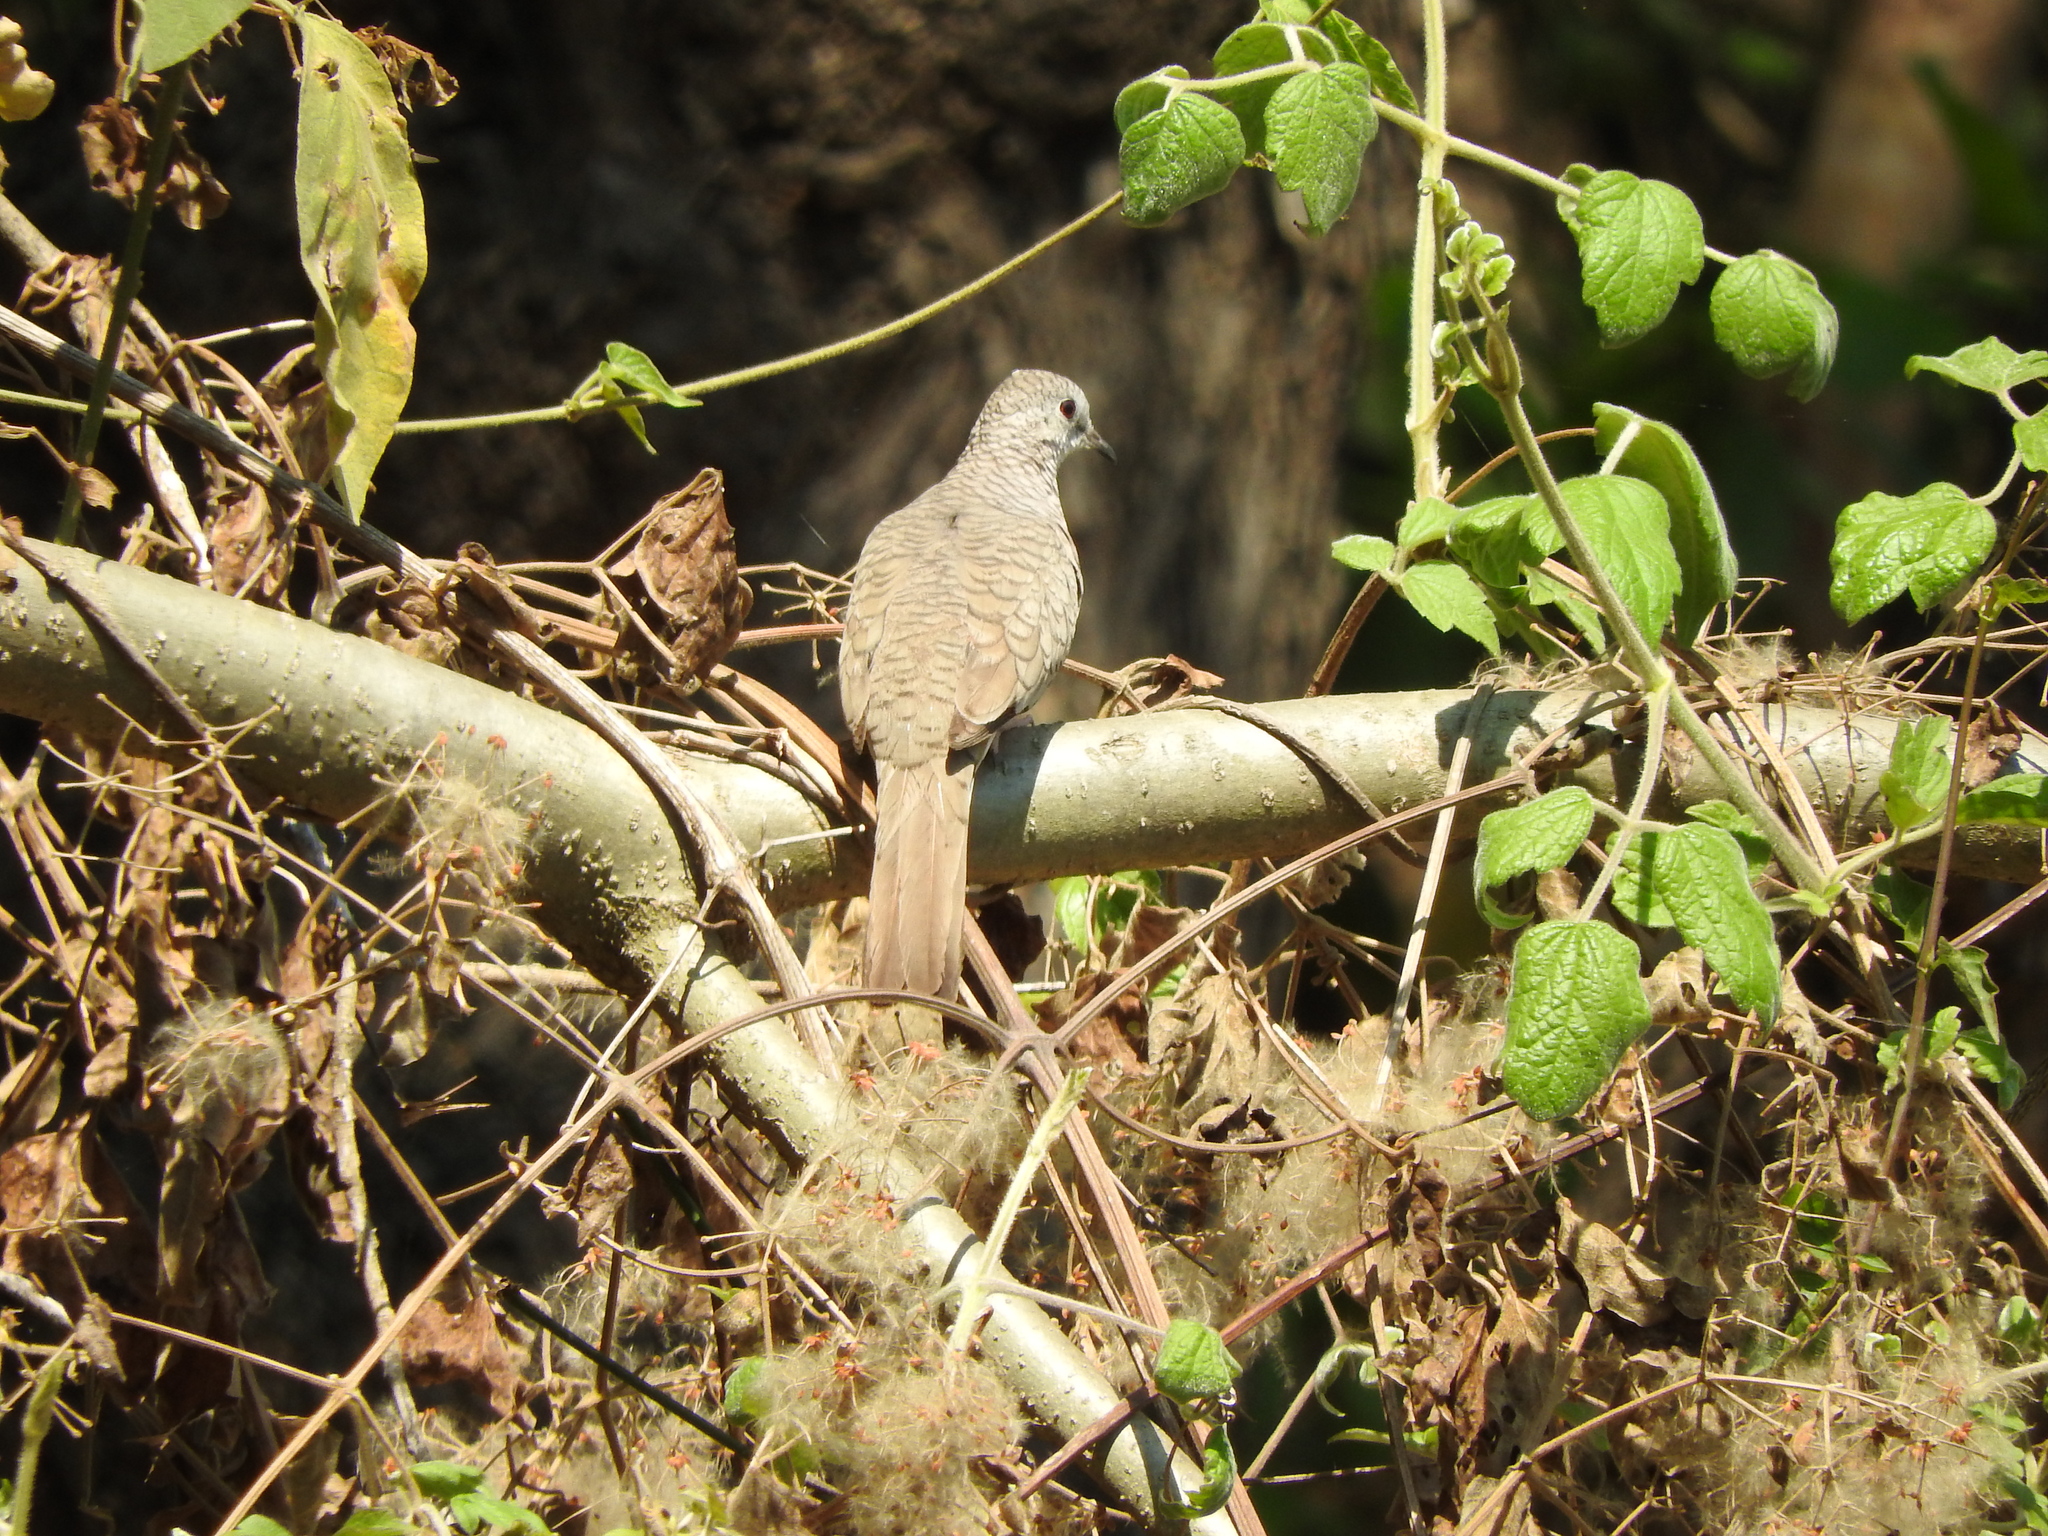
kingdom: Animalia
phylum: Chordata
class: Aves
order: Columbiformes
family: Columbidae
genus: Columbina
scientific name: Columbina inca
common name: Inca dove
